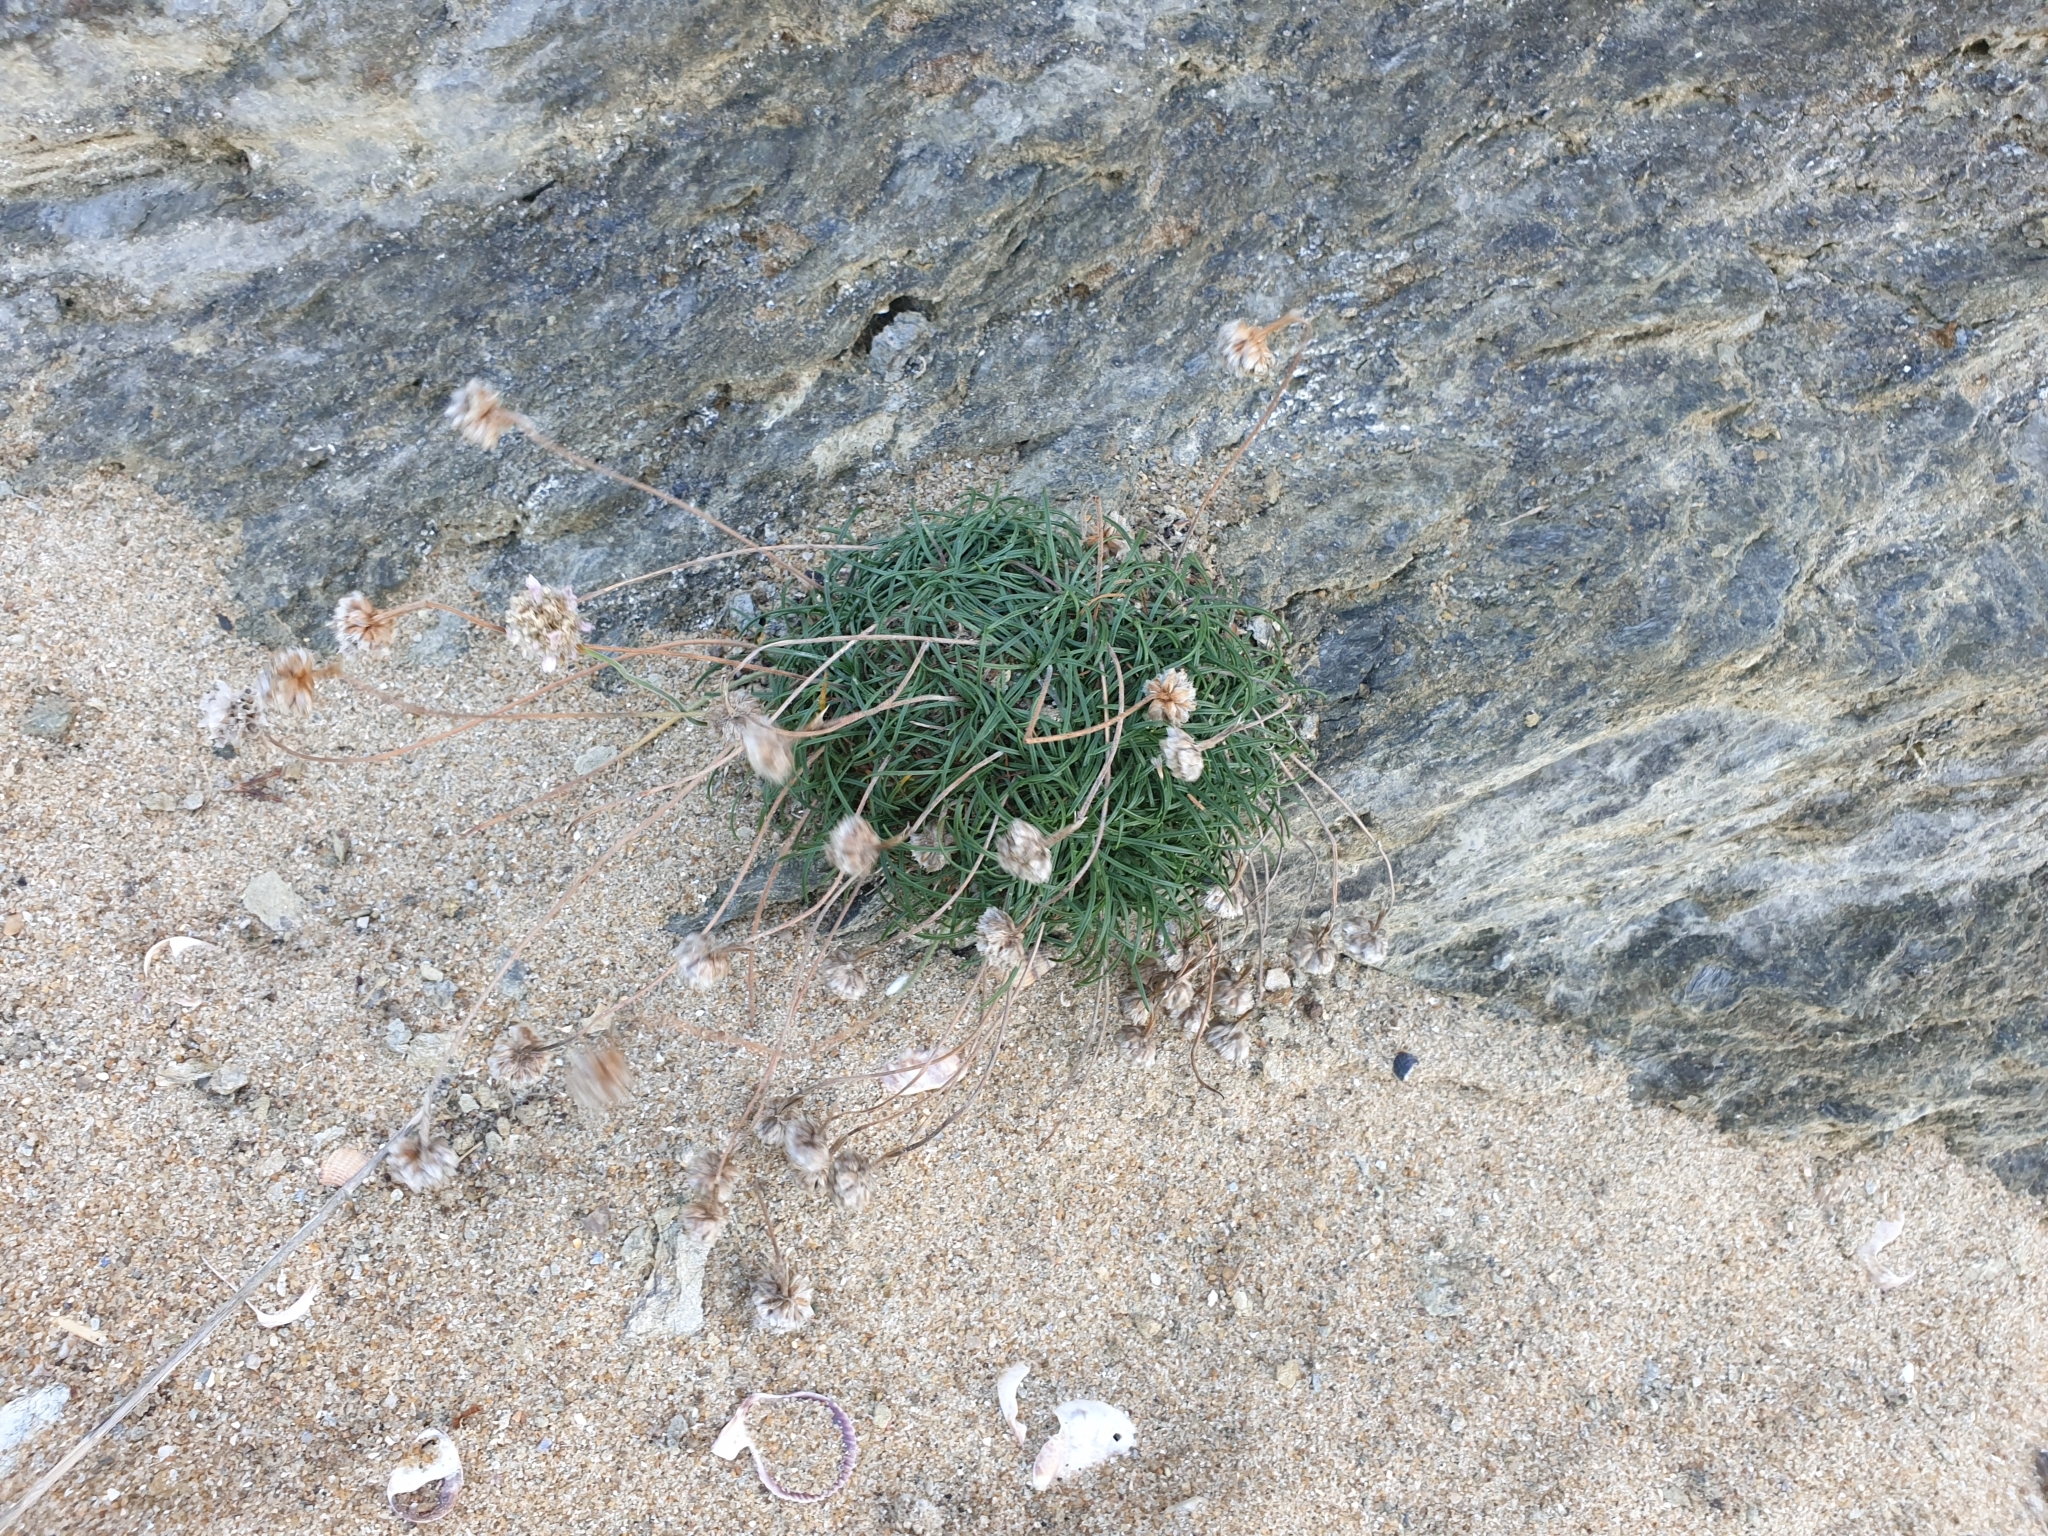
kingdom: Plantae
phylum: Tracheophyta
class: Magnoliopsida
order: Caryophyllales
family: Plumbaginaceae
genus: Armeria
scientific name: Armeria maritima
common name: Thrift
